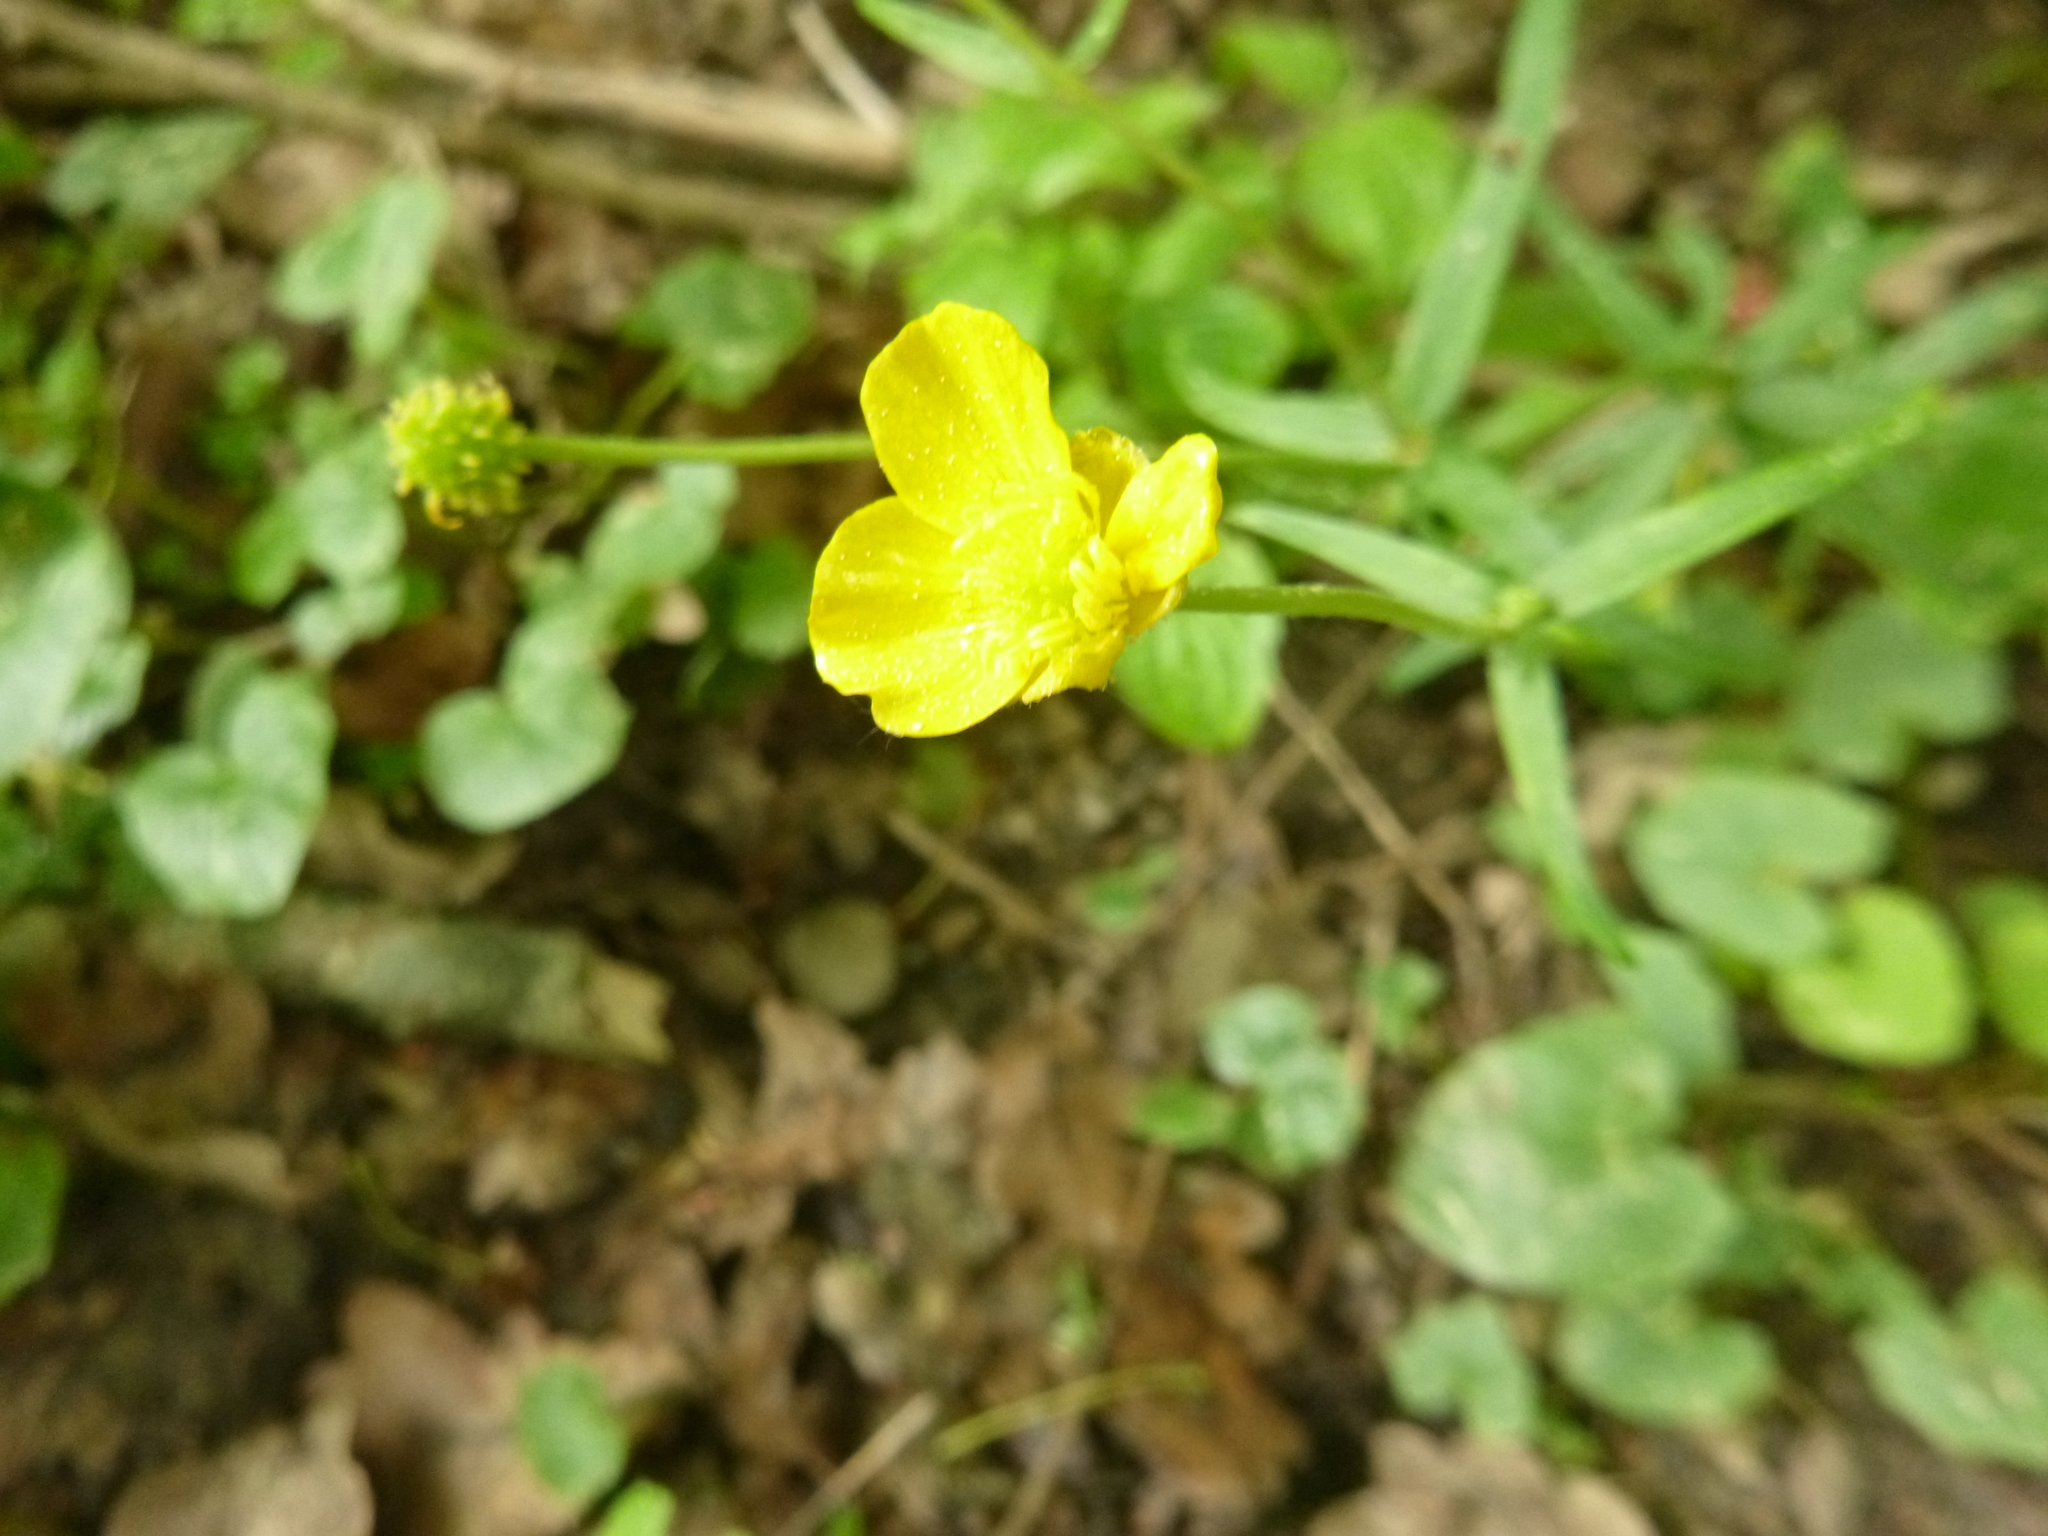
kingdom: Plantae
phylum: Tracheophyta
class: Magnoliopsida
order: Ranunculales
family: Ranunculaceae
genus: Ranunculus
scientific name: Ranunculus auricomus
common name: Goldilocks buttercup
